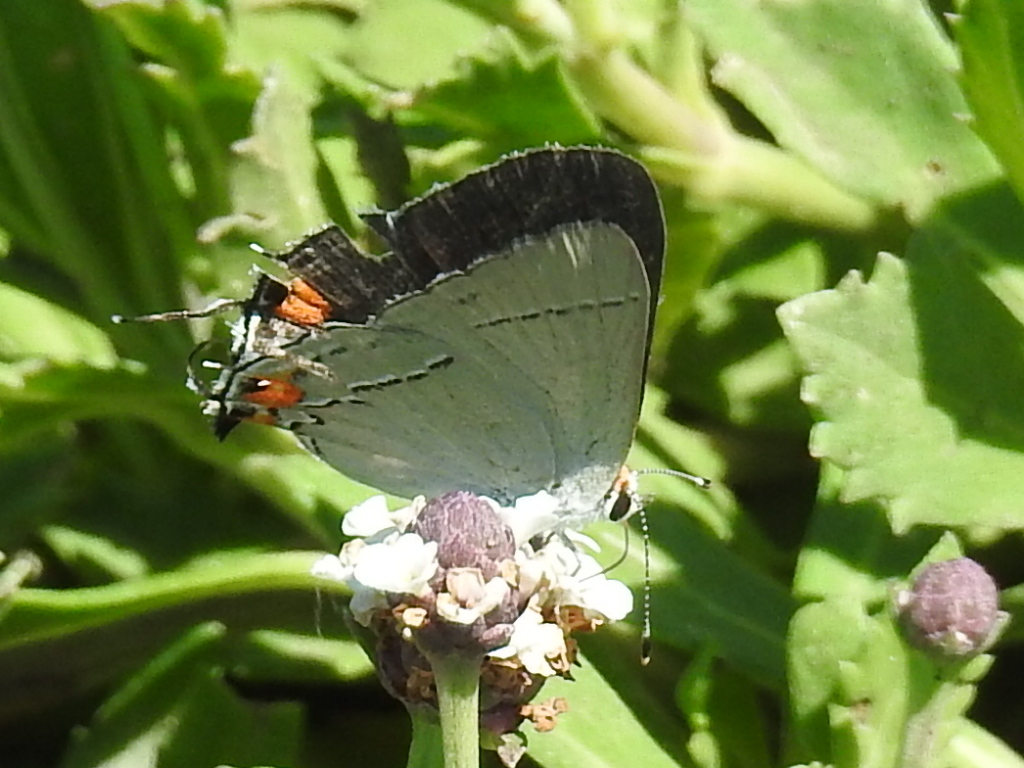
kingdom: Animalia
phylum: Arthropoda
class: Insecta
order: Lepidoptera
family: Lycaenidae
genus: Strymon
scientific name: Strymon melinus
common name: Gray hairstreak
